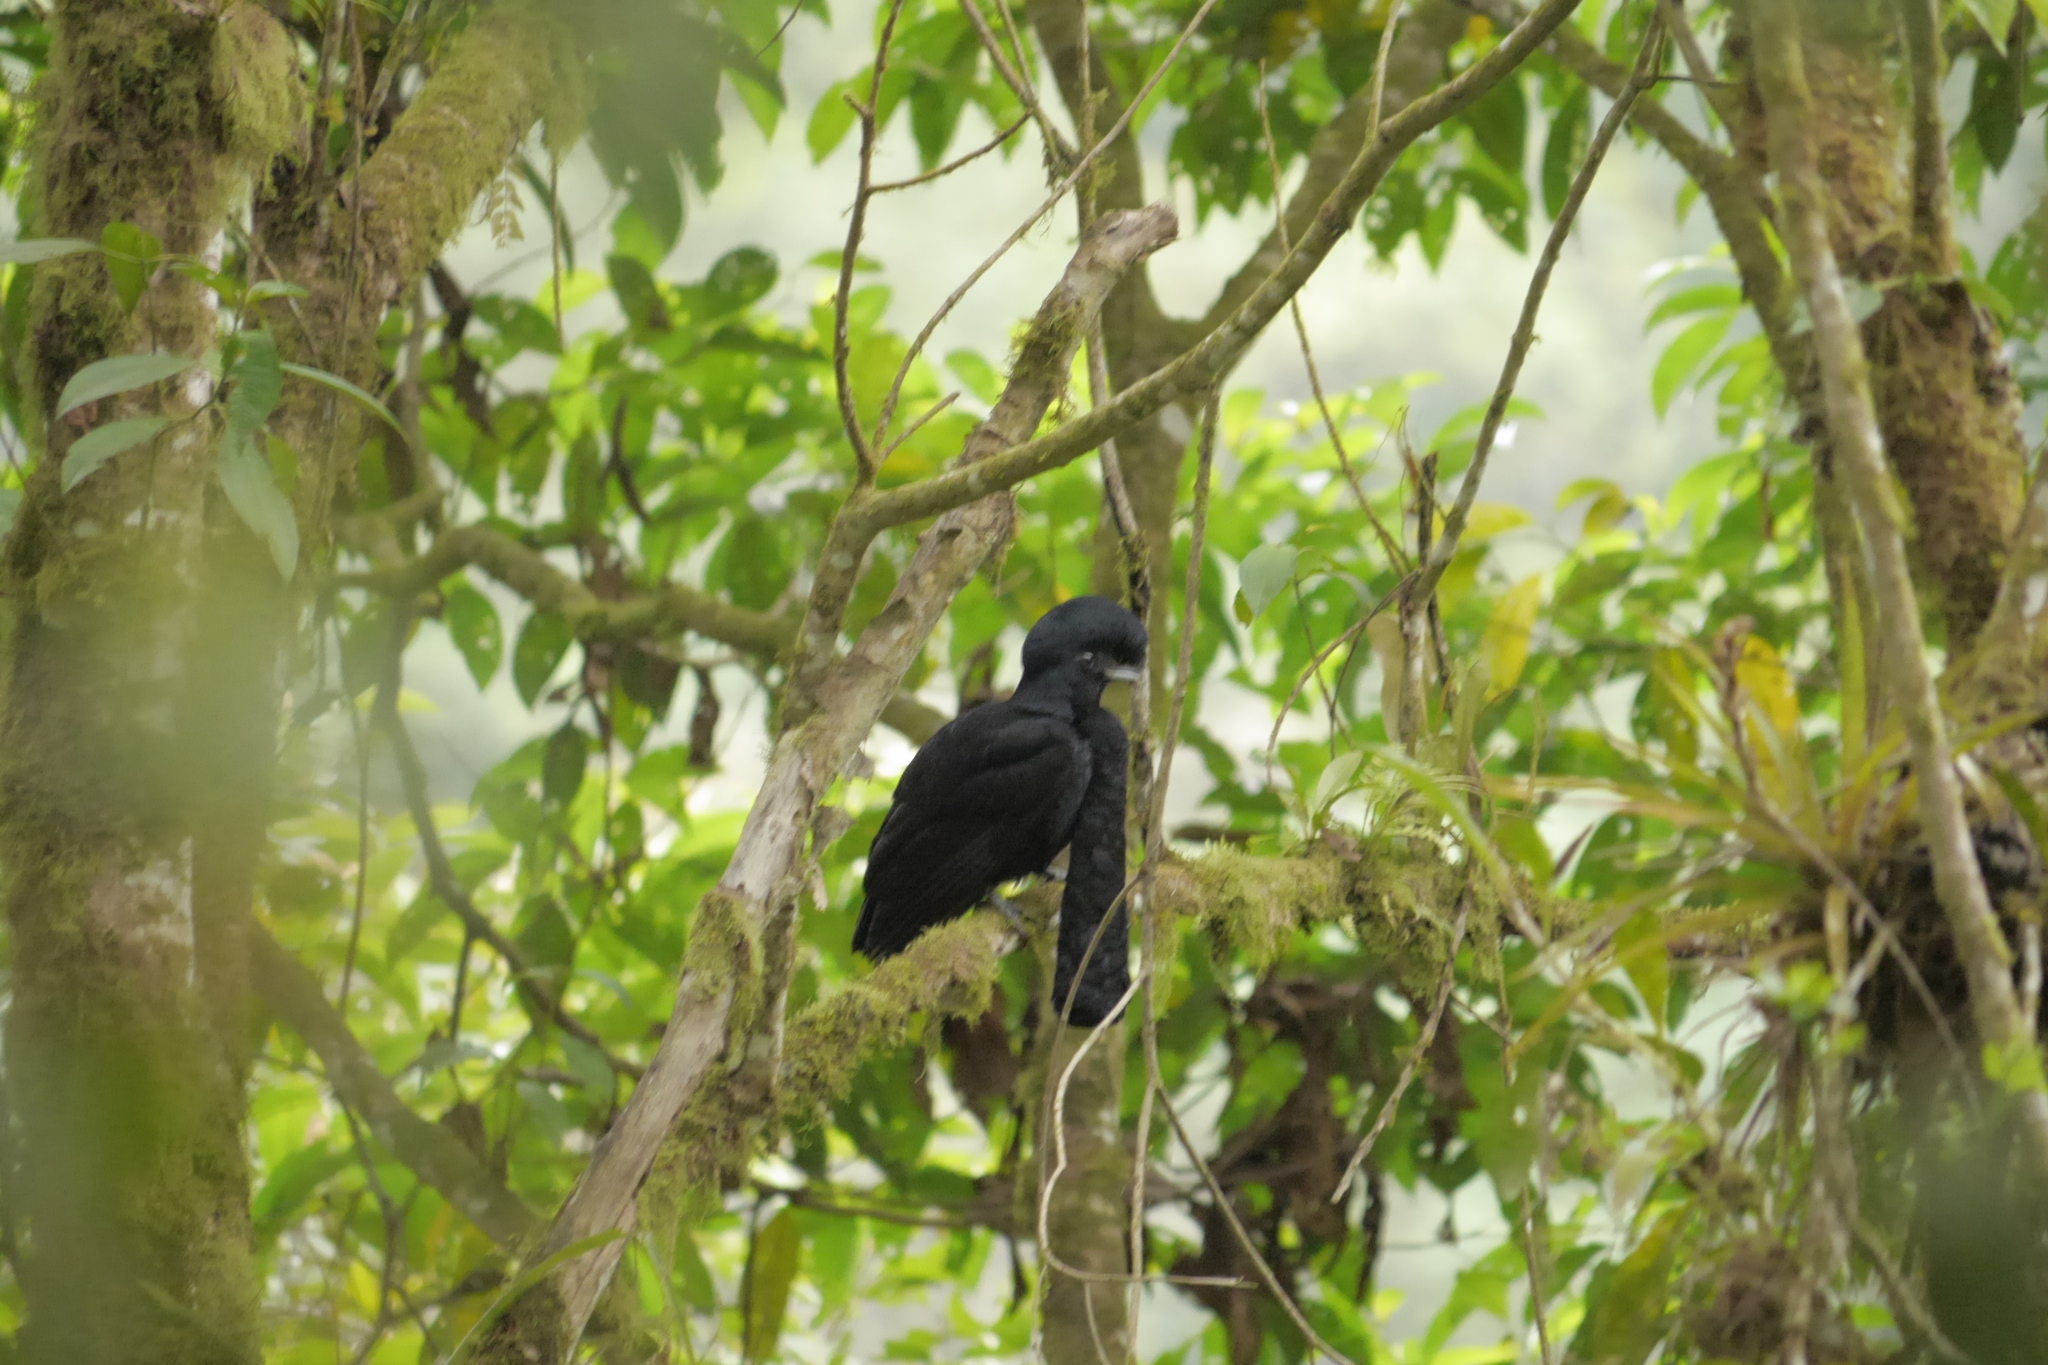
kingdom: Animalia
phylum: Chordata
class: Aves
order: Passeriformes
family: Cotingidae
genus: Cephalopterus
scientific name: Cephalopterus penduliger
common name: Long-wattled umbrellabird
